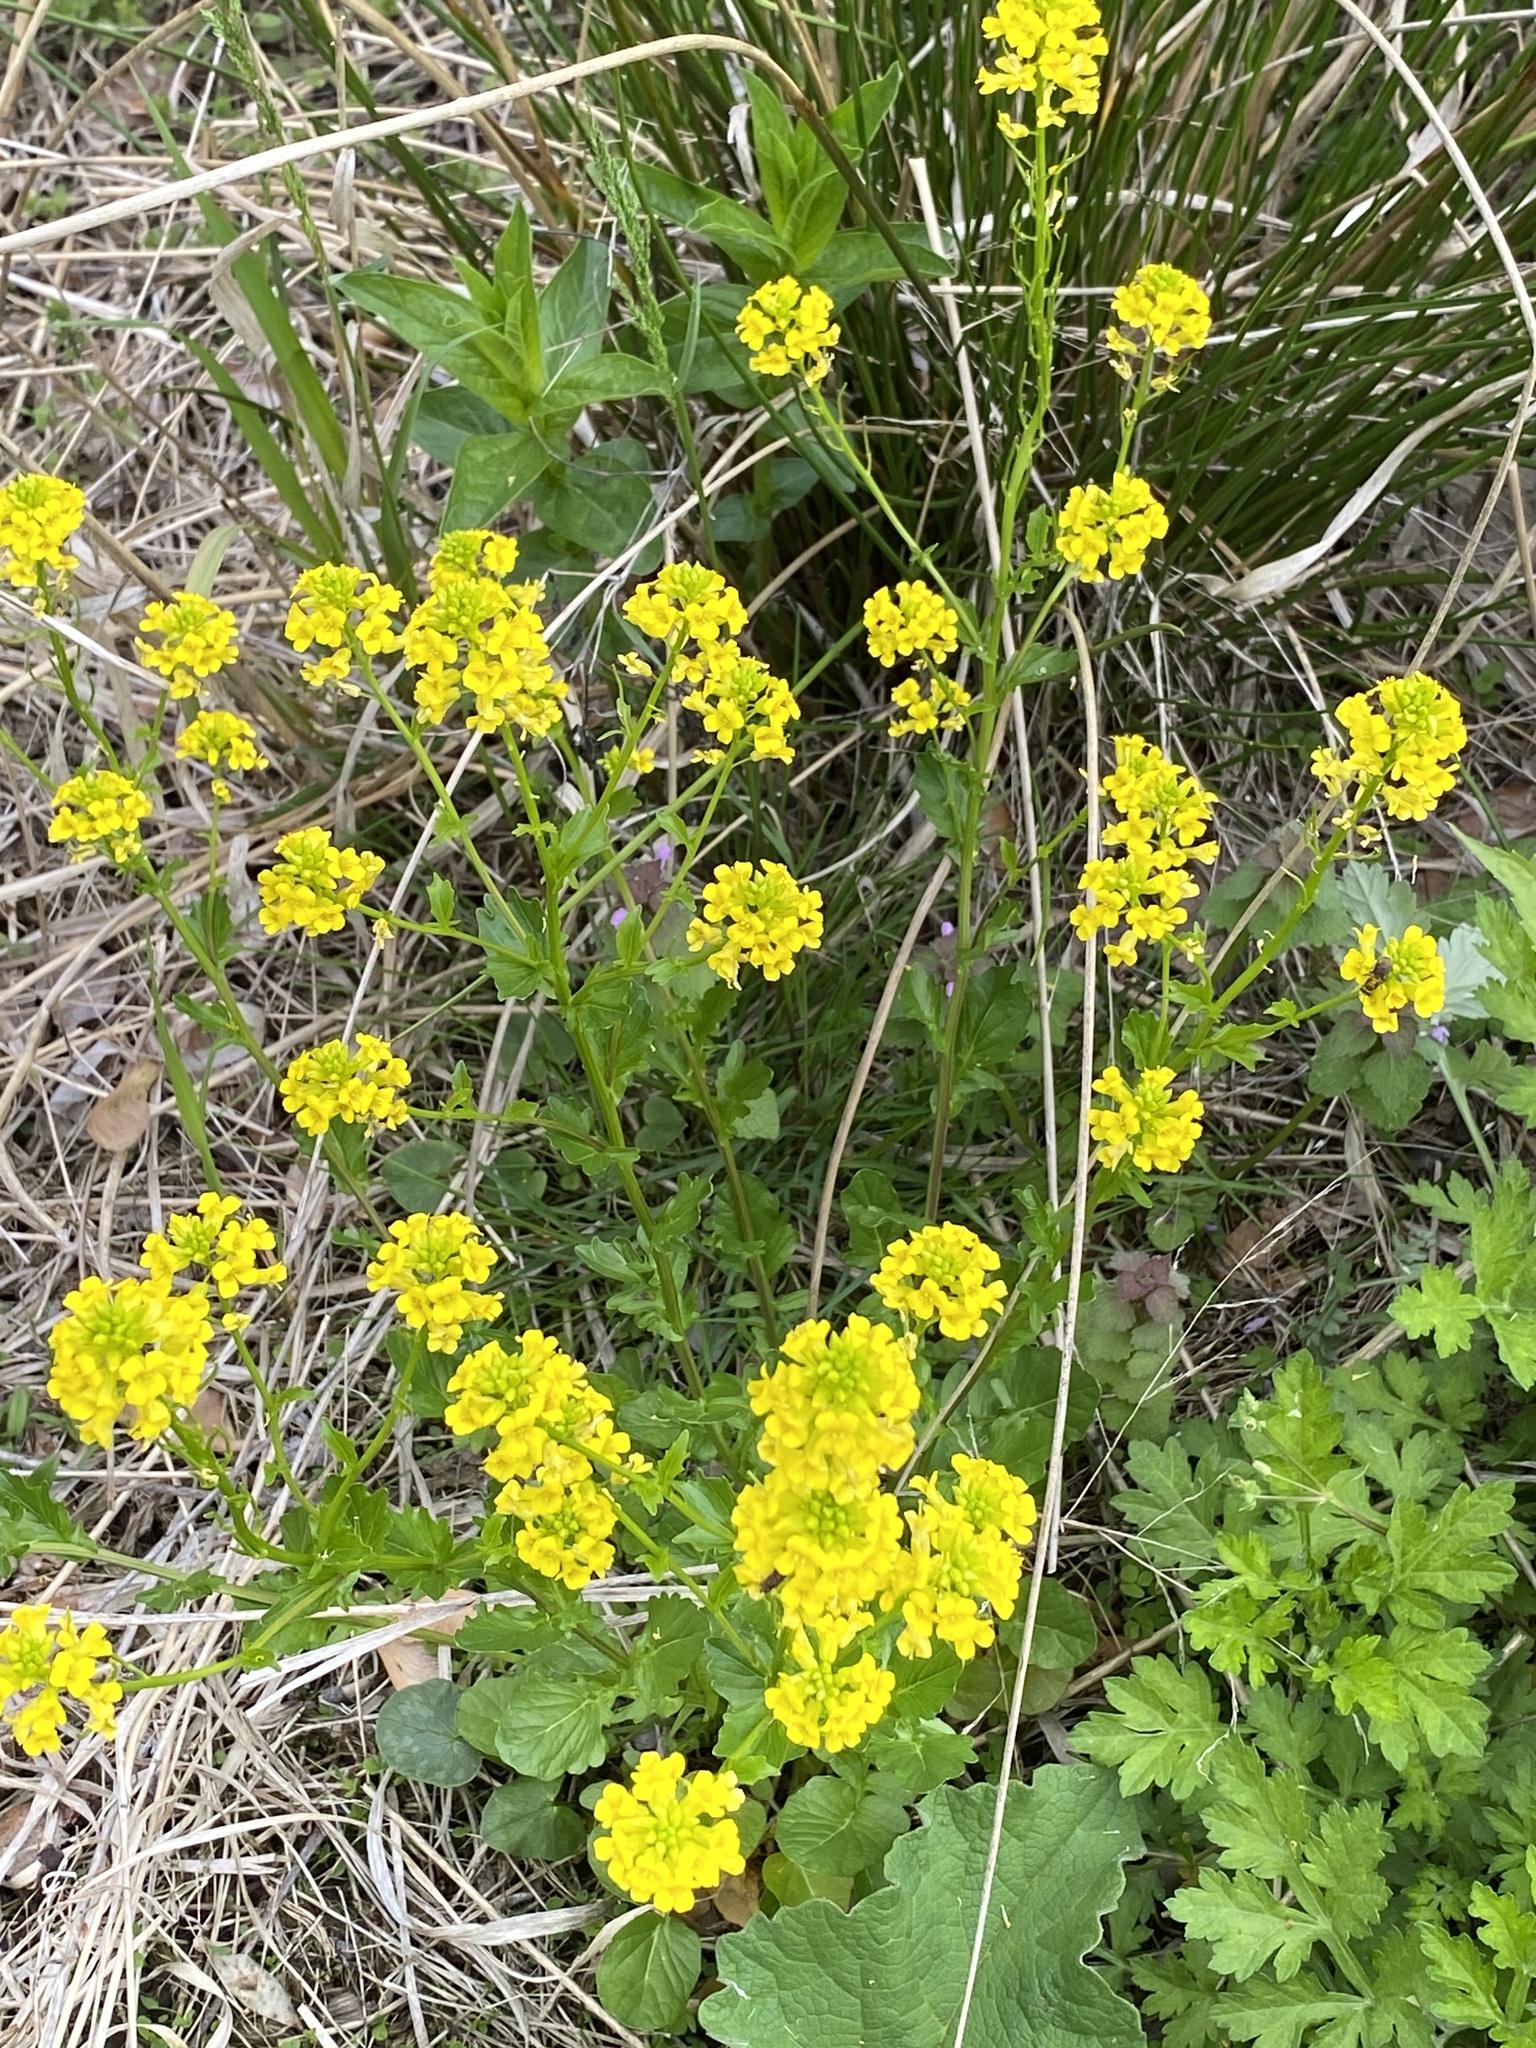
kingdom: Plantae
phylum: Tracheophyta
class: Magnoliopsida
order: Brassicales
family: Brassicaceae
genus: Barbarea
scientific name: Barbarea vulgaris
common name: Cressy-greens
